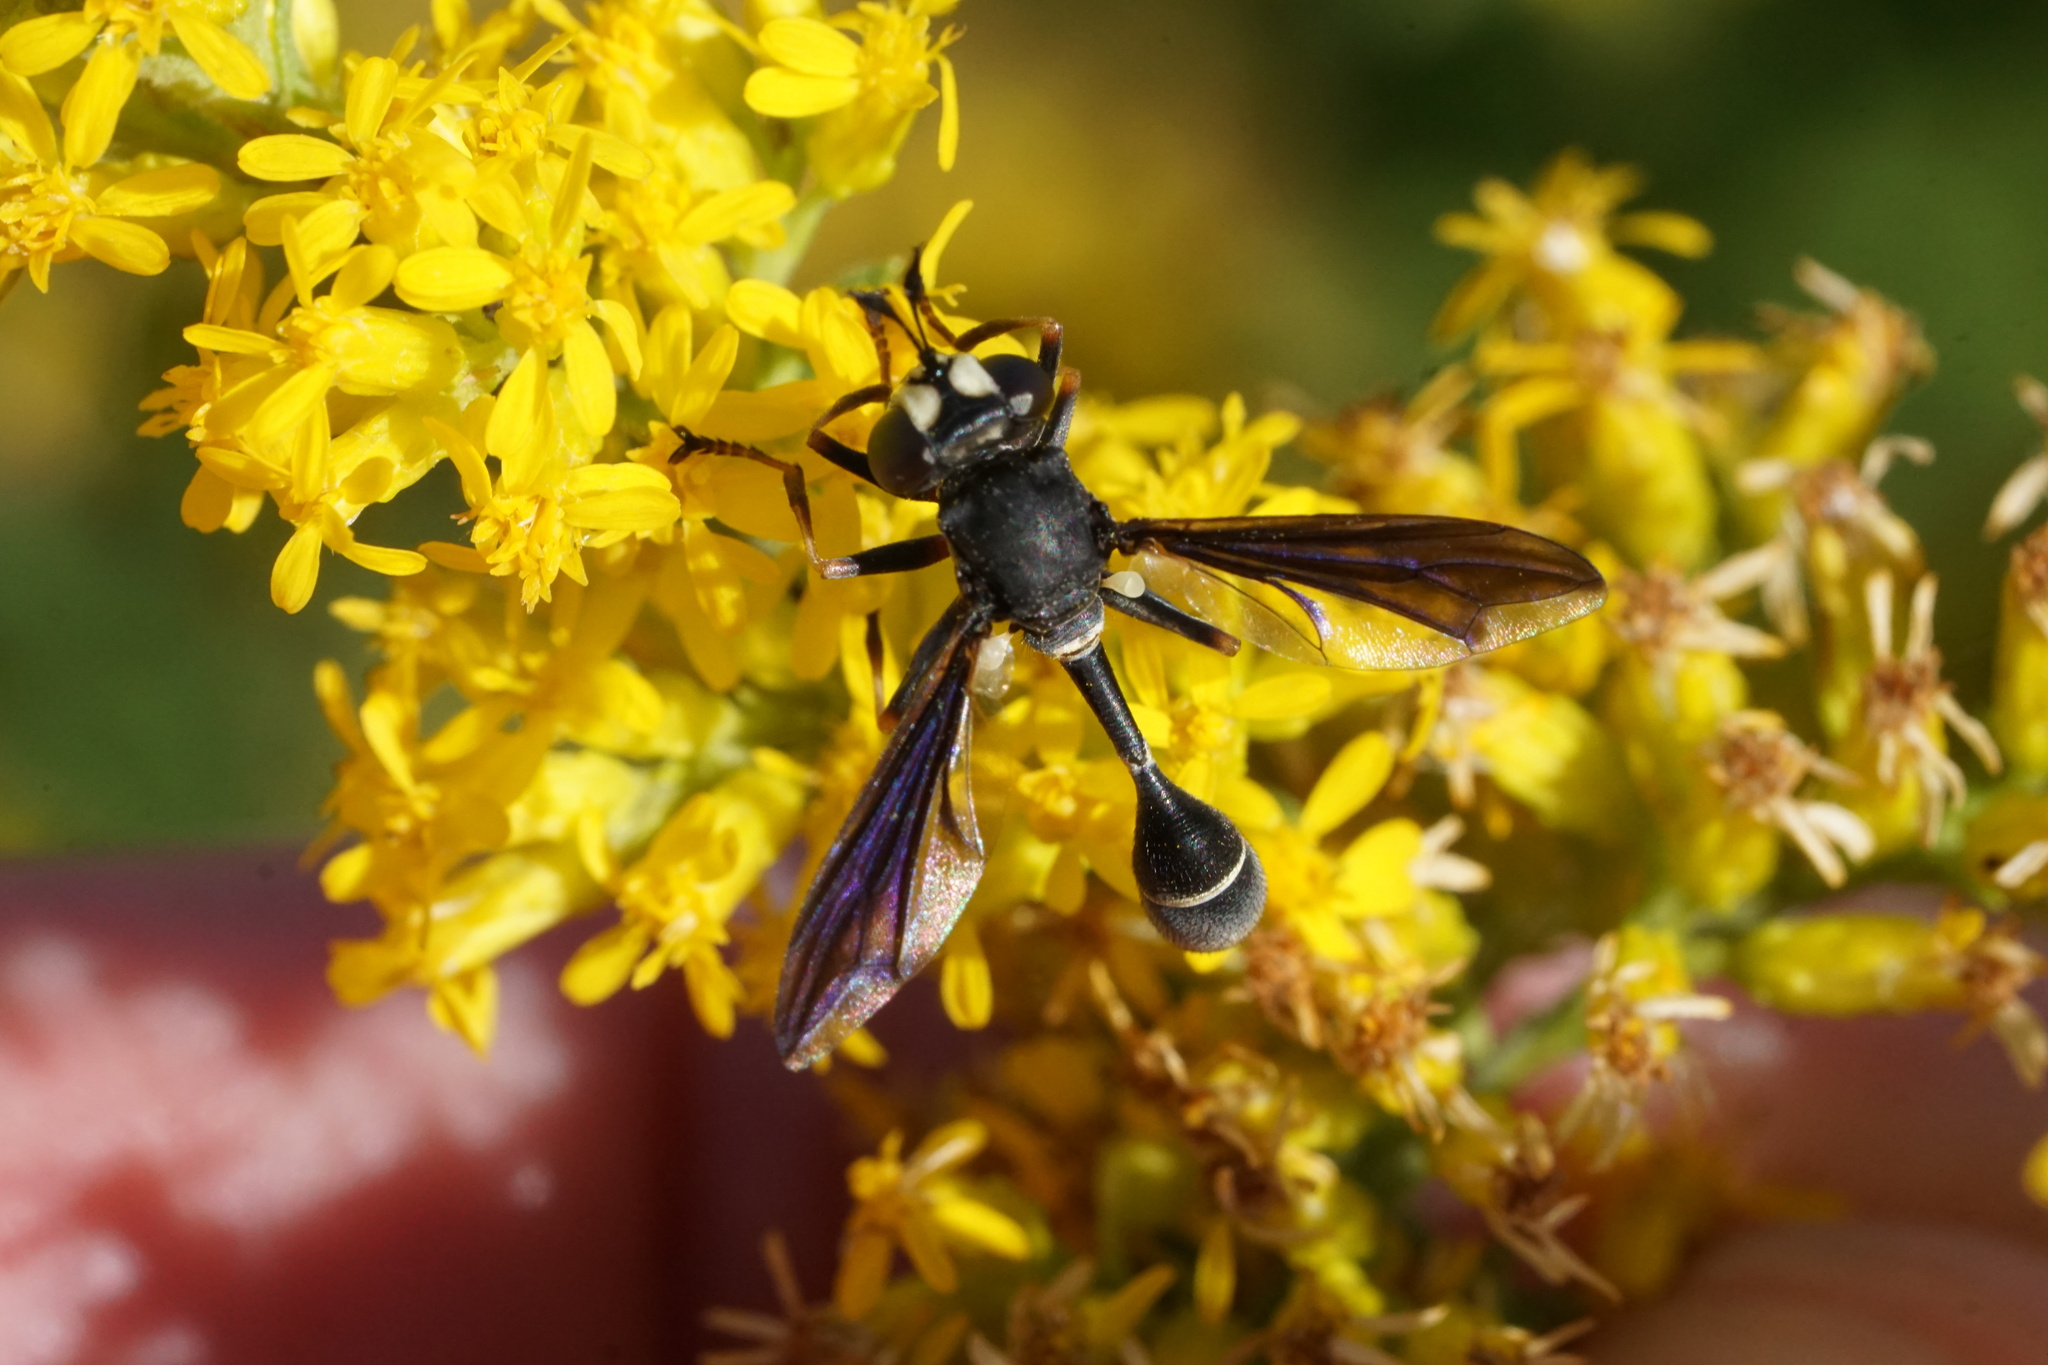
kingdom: Animalia
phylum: Arthropoda
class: Insecta
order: Diptera
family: Conopidae
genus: Physocephala
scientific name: Physocephala tibialis
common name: Common eastern physocephala
